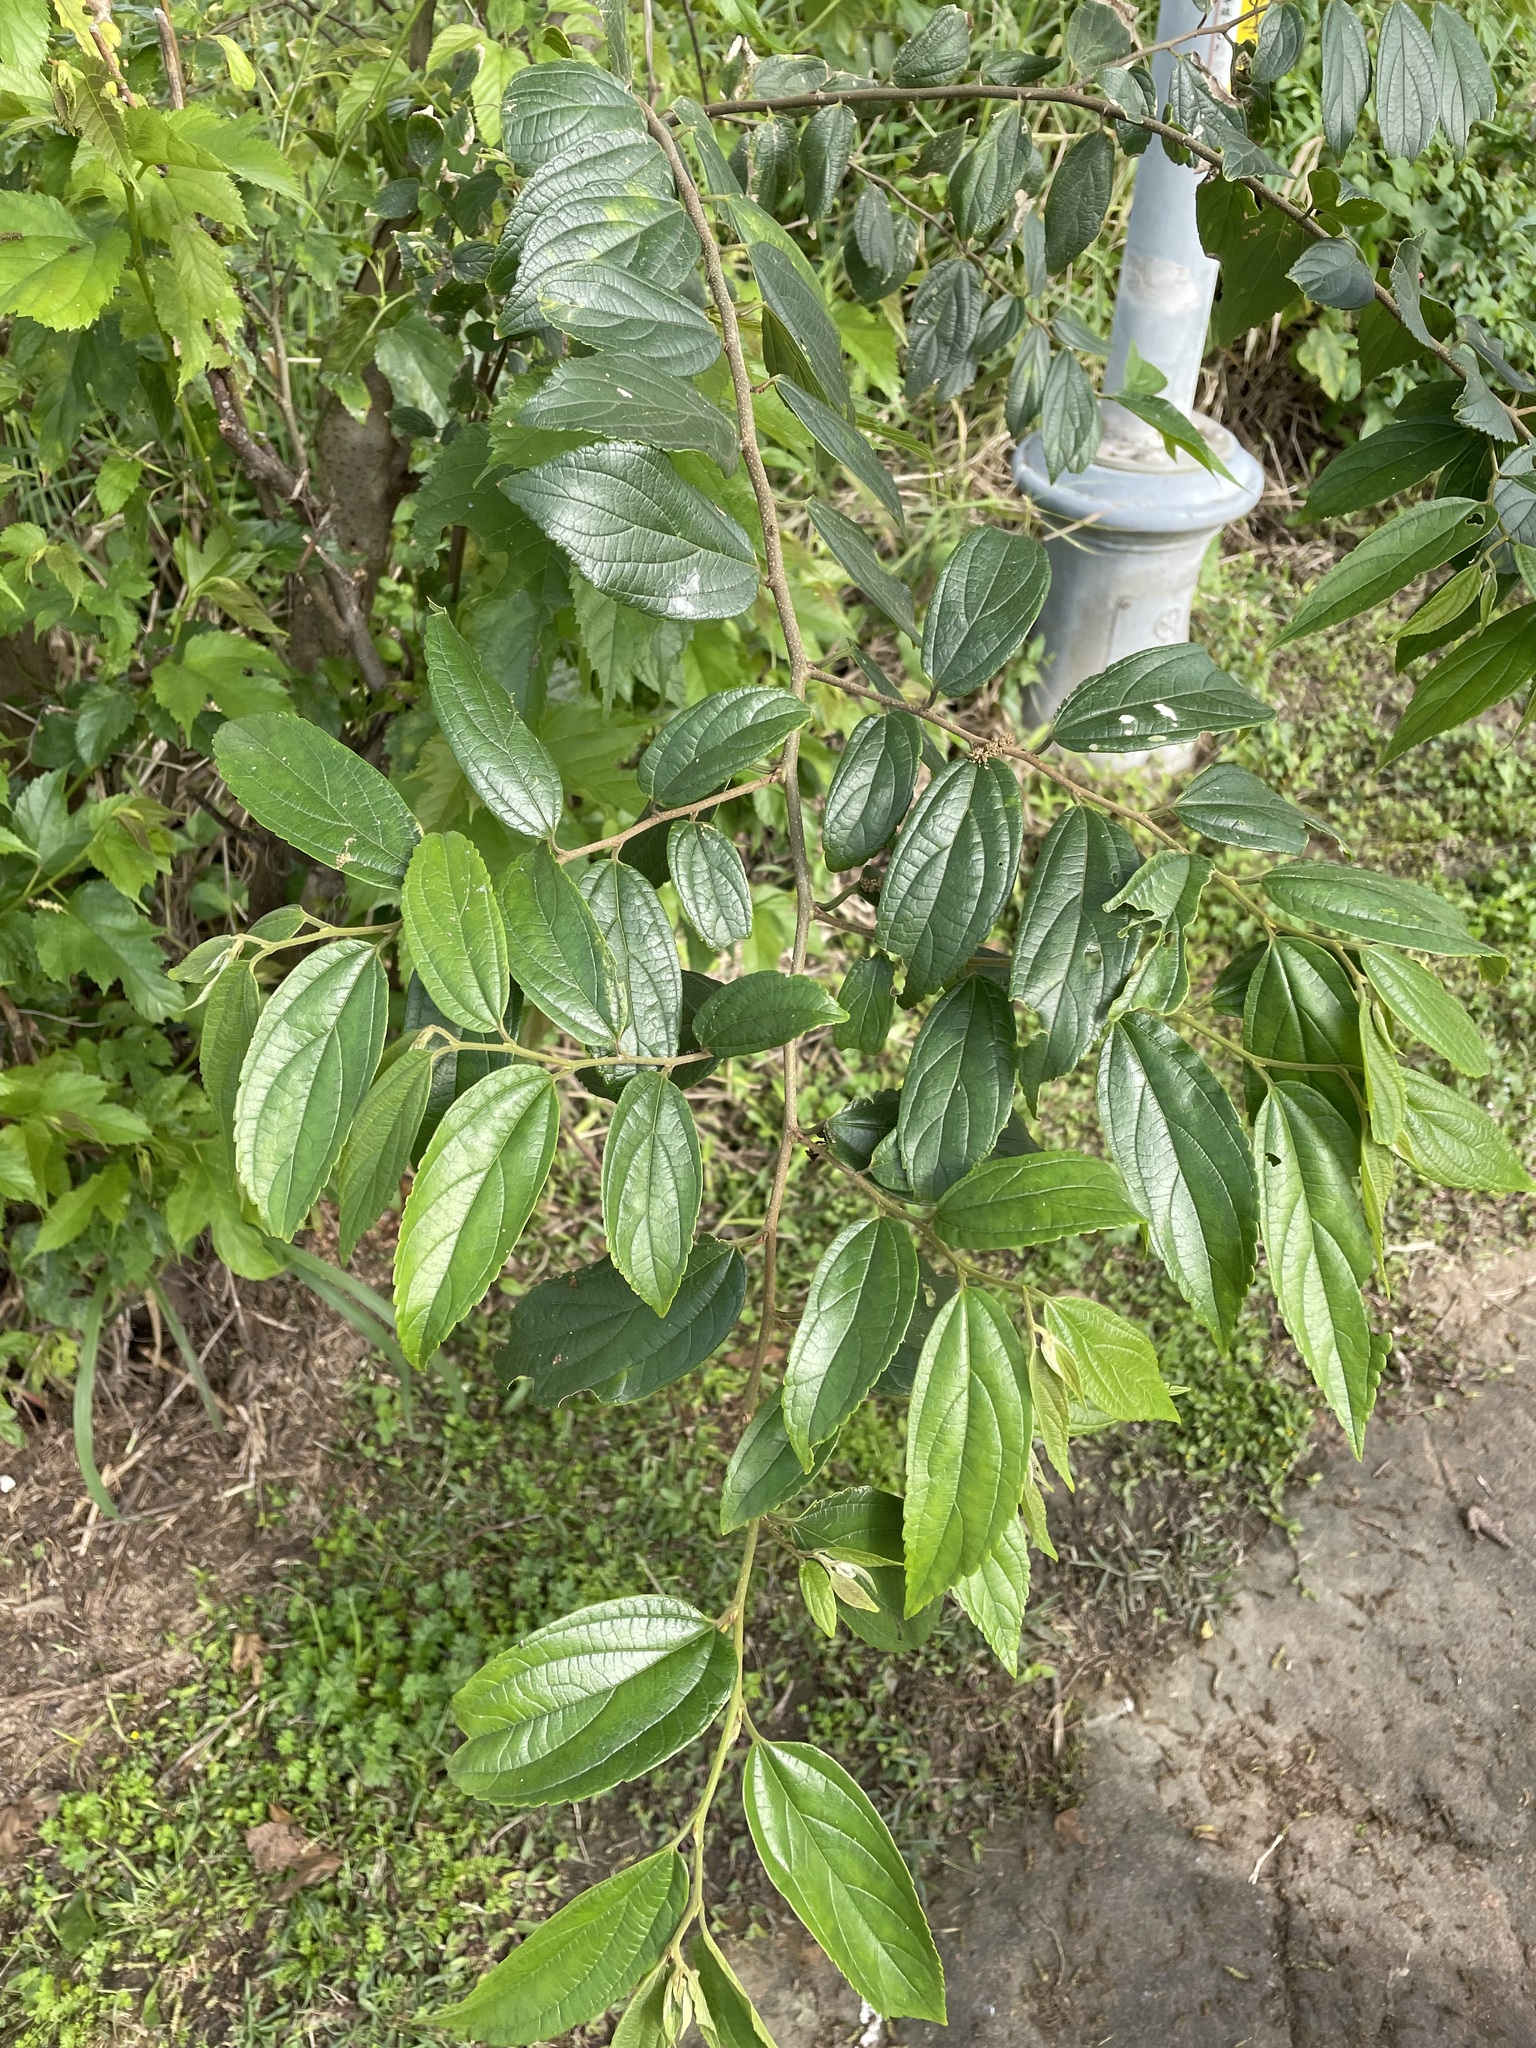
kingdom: Plantae
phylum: Tracheophyta
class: Magnoliopsida
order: Rosales
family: Cannabaceae
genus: Celtis
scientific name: Celtis sinensis
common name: Chinese hackberry
